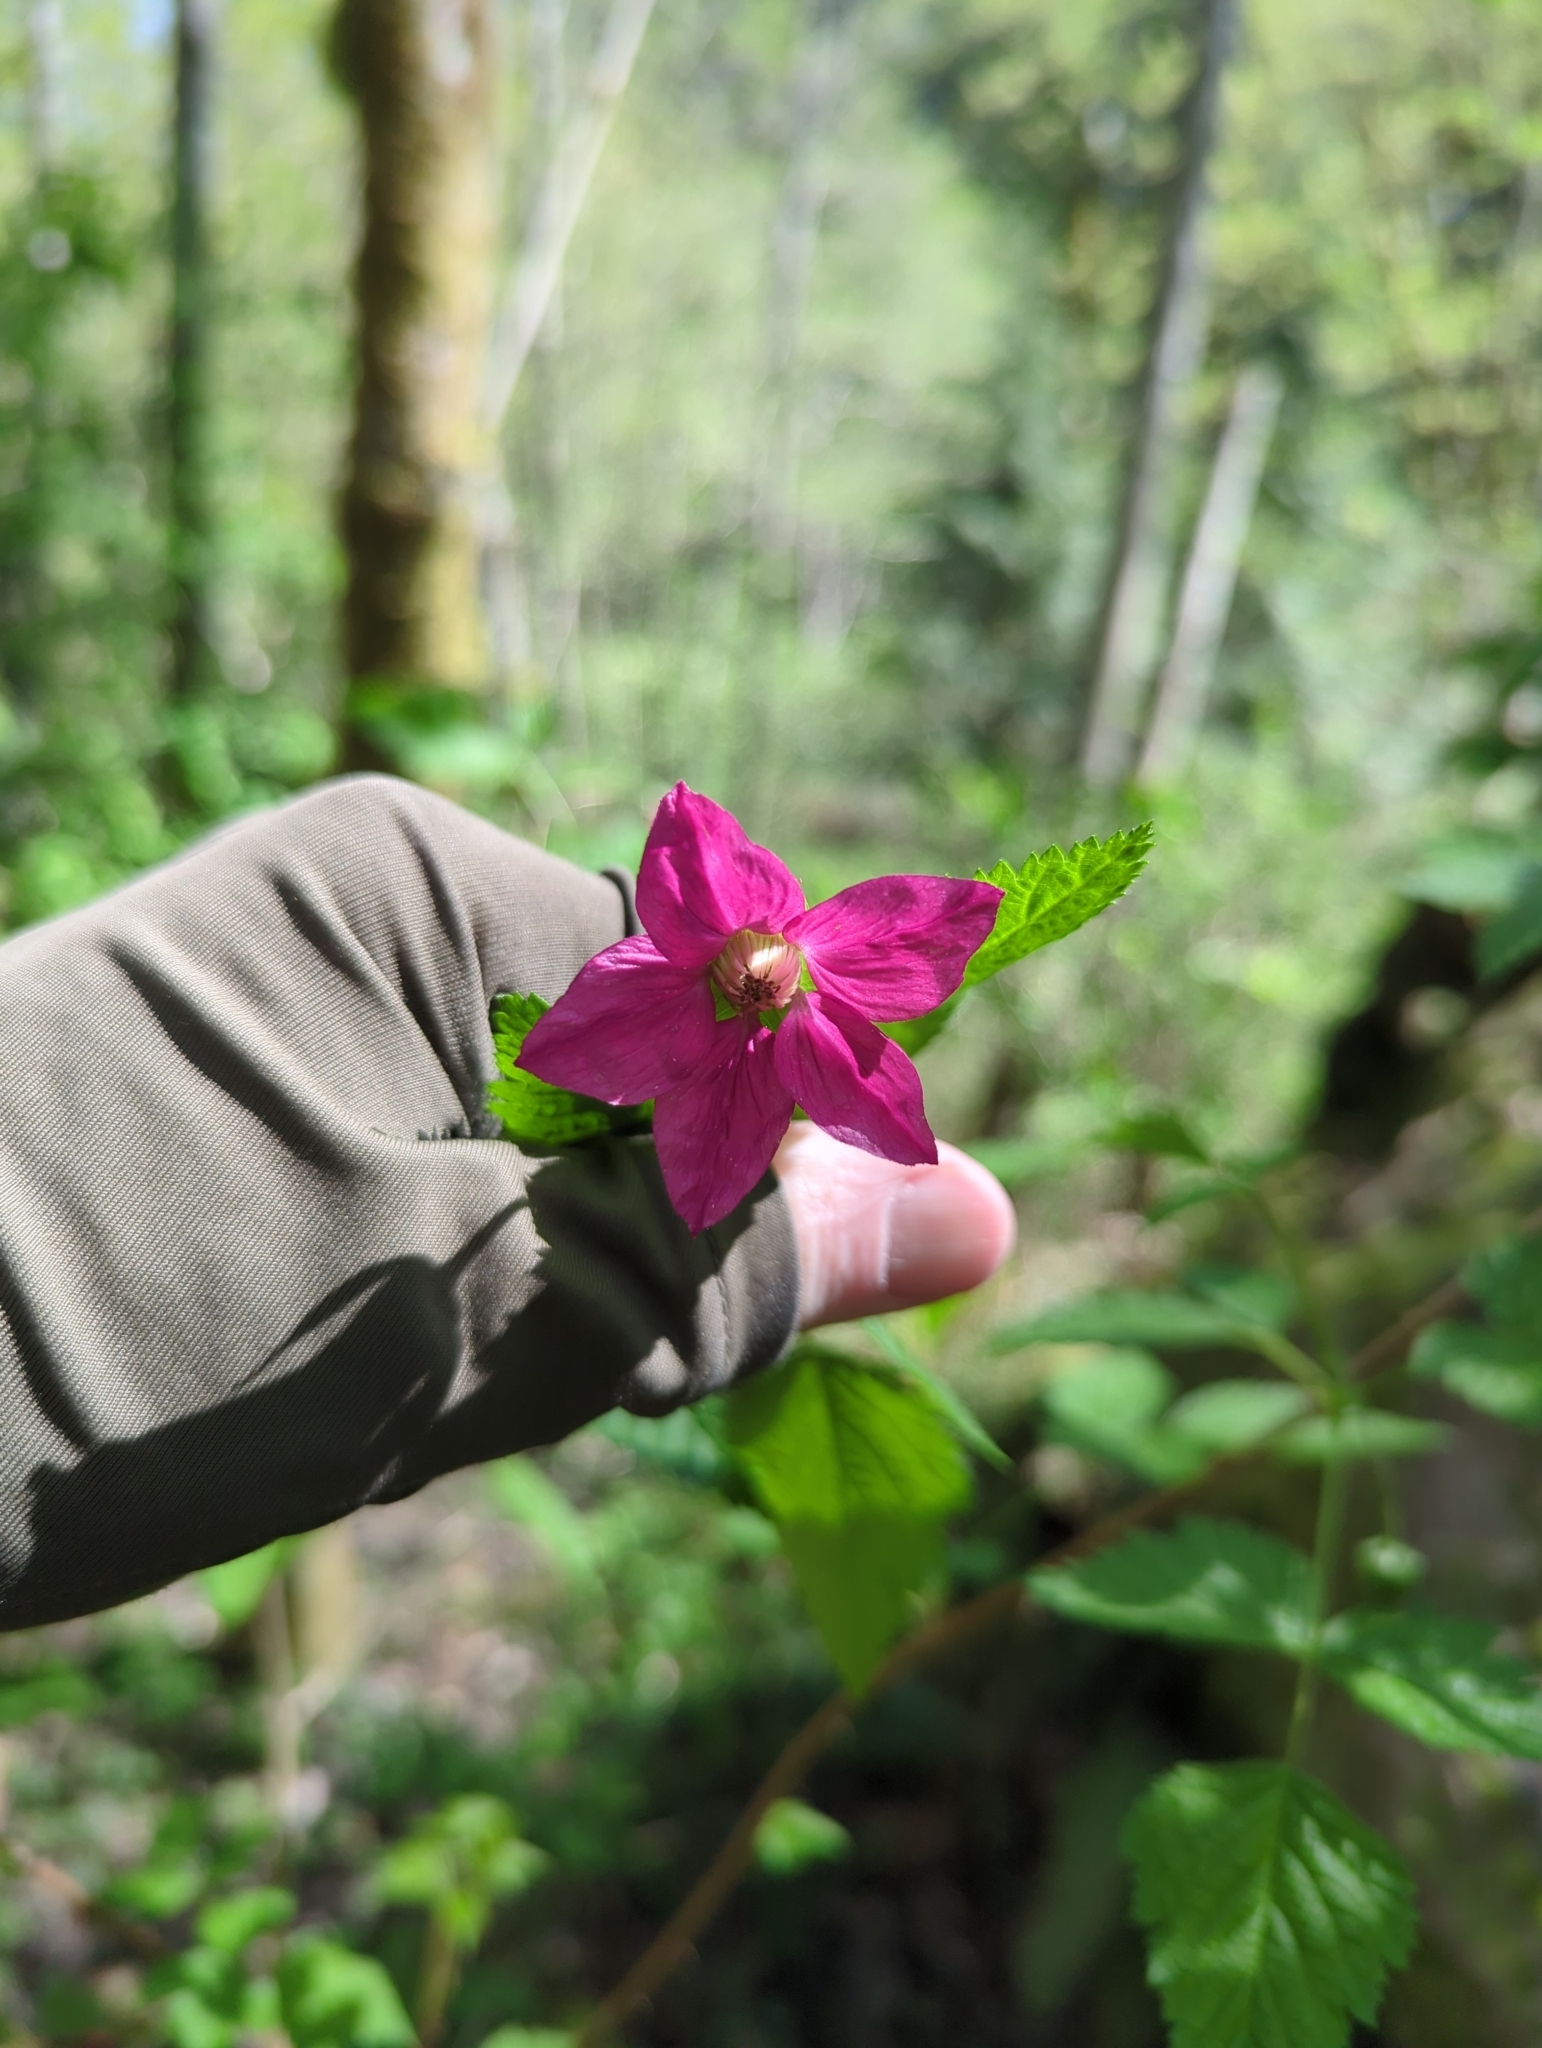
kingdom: Plantae
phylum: Tracheophyta
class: Magnoliopsida
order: Rosales
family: Rosaceae
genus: Rubus
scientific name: Rubus spectabilis
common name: Salmonberry
